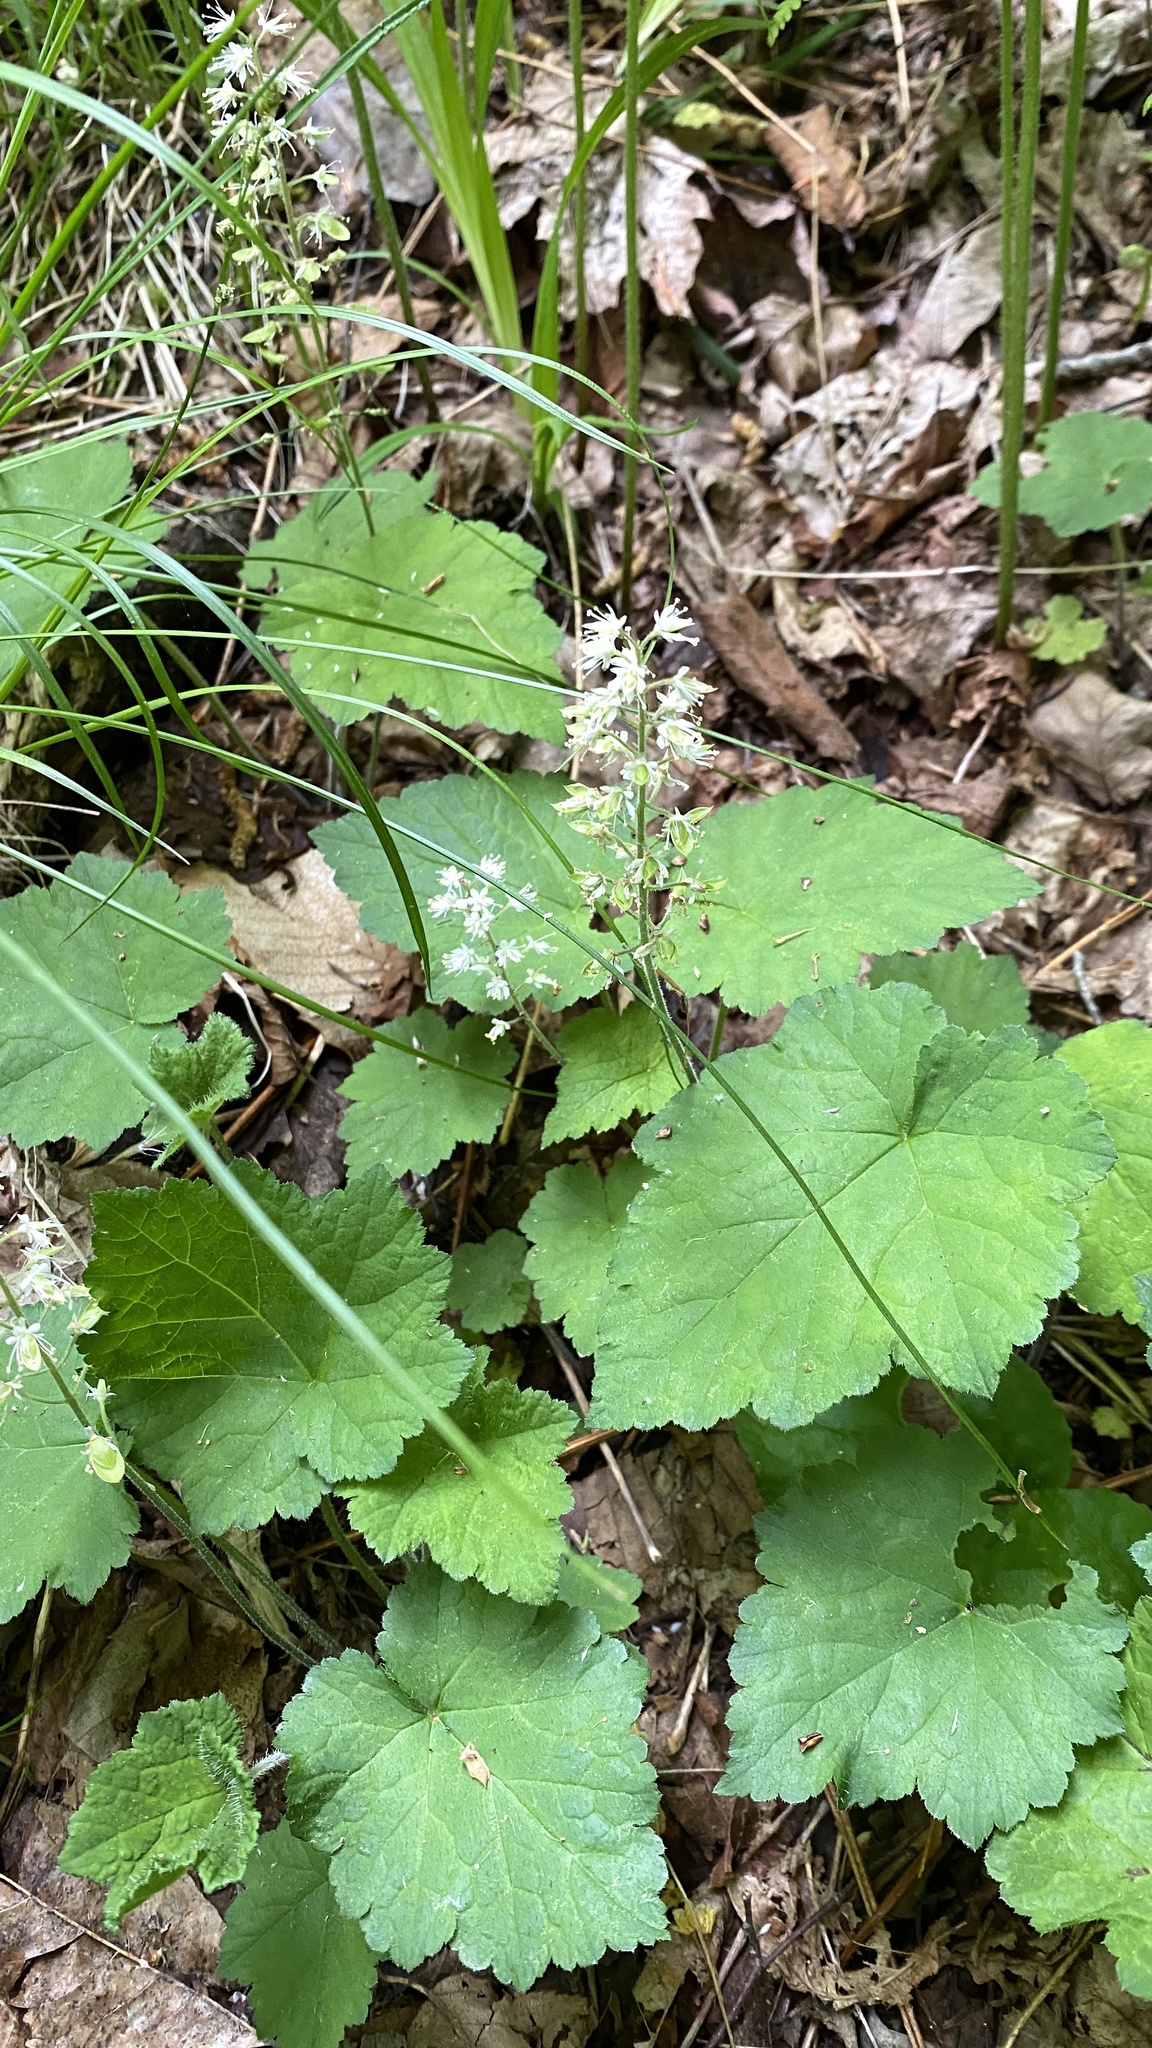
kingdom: Plantae
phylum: Tracheophyta
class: Magnoliopsida
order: Saxifragales
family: Saxifragaceae
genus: Tiarella
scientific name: Tiarella stolonifera
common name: Stoloniferous foamflower
